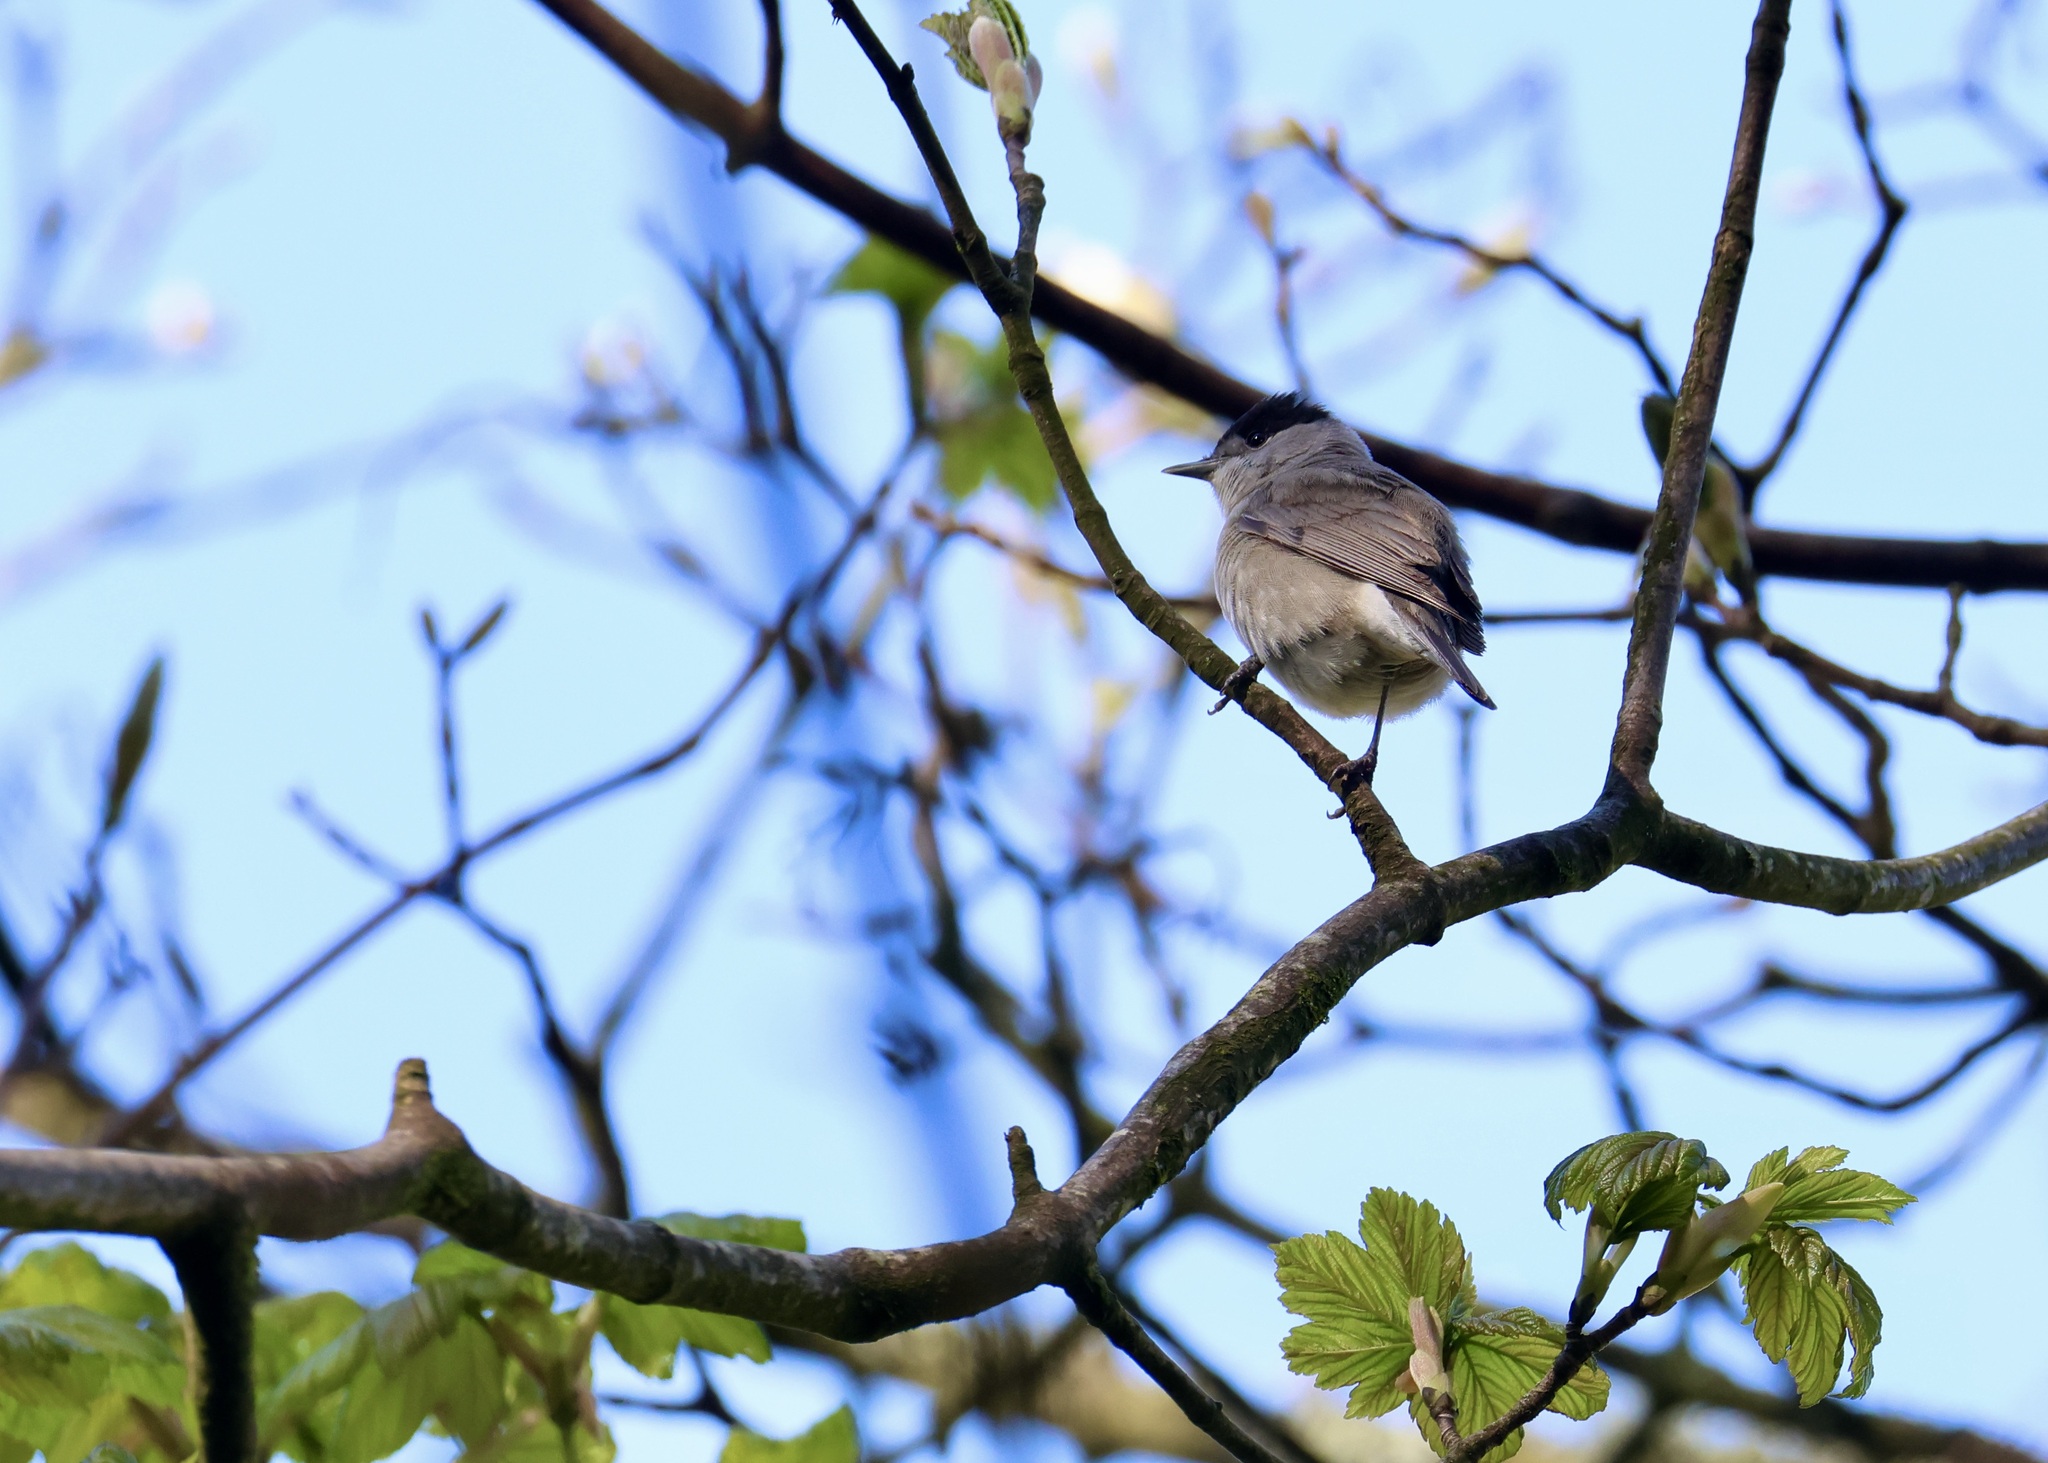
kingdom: Animalia
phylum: Chordata
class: Aves
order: Passeriformes
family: Sylviidae
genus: Sylvia
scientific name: Sylvia atricapilla
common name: Eurasian blackcap
